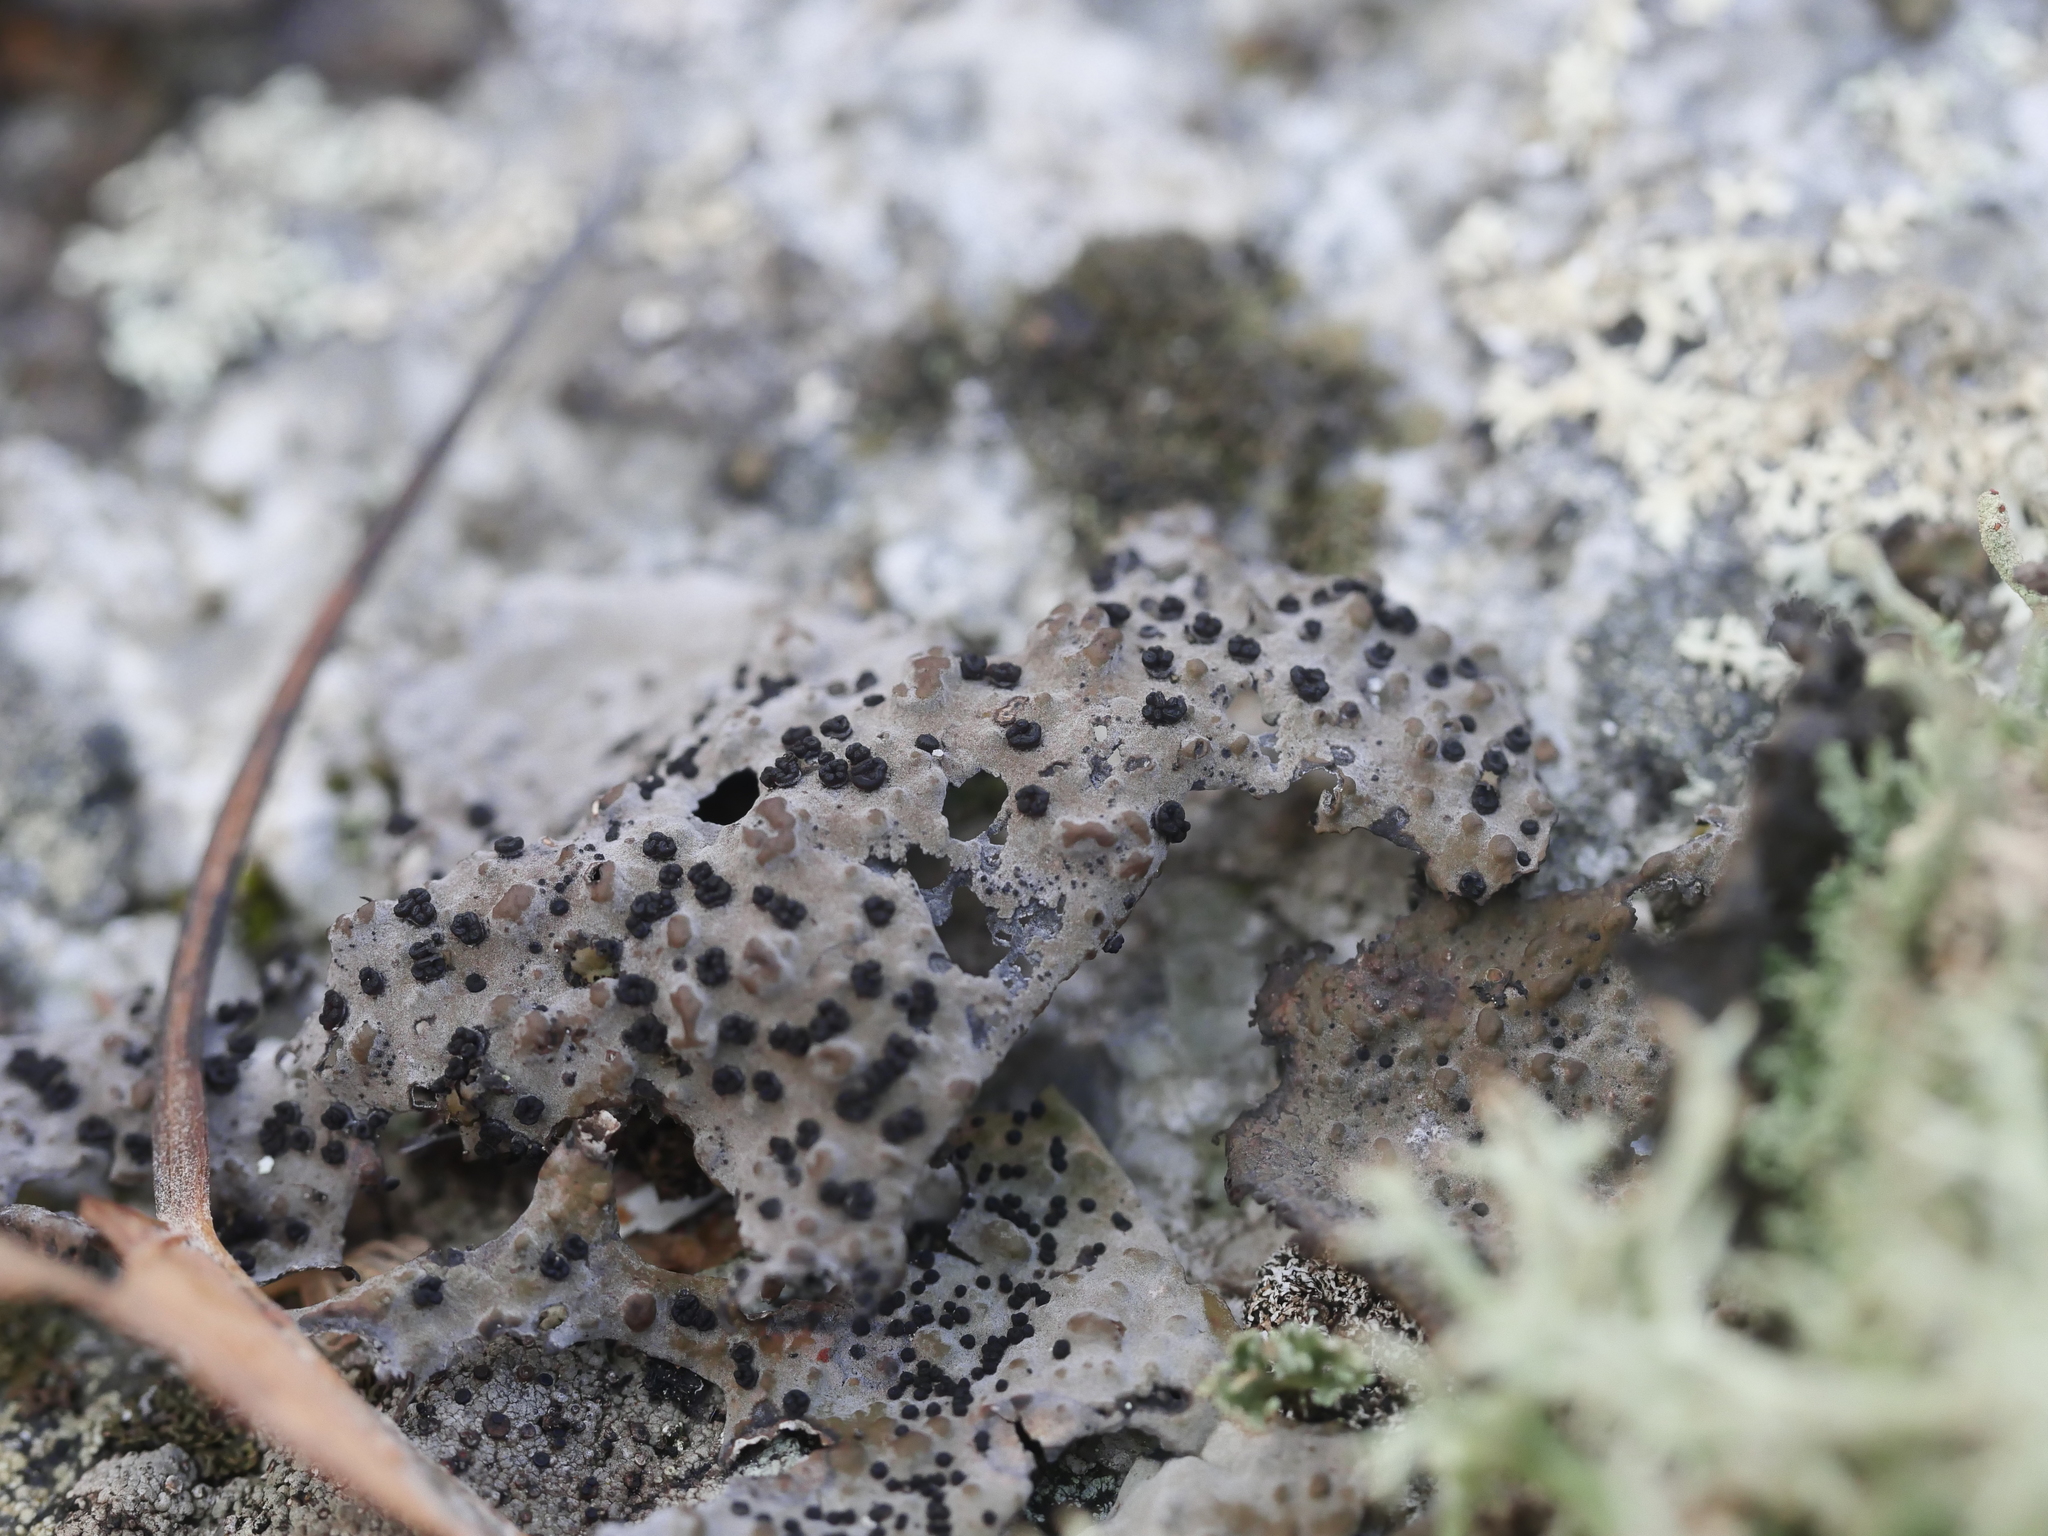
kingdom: Fungi
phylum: Ascomycota
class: Lecanoromycetes
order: Umbilicariales
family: Umbilicariaceae
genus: Lasallia
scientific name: Lasallia papulosa
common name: Common toadskin lichen
